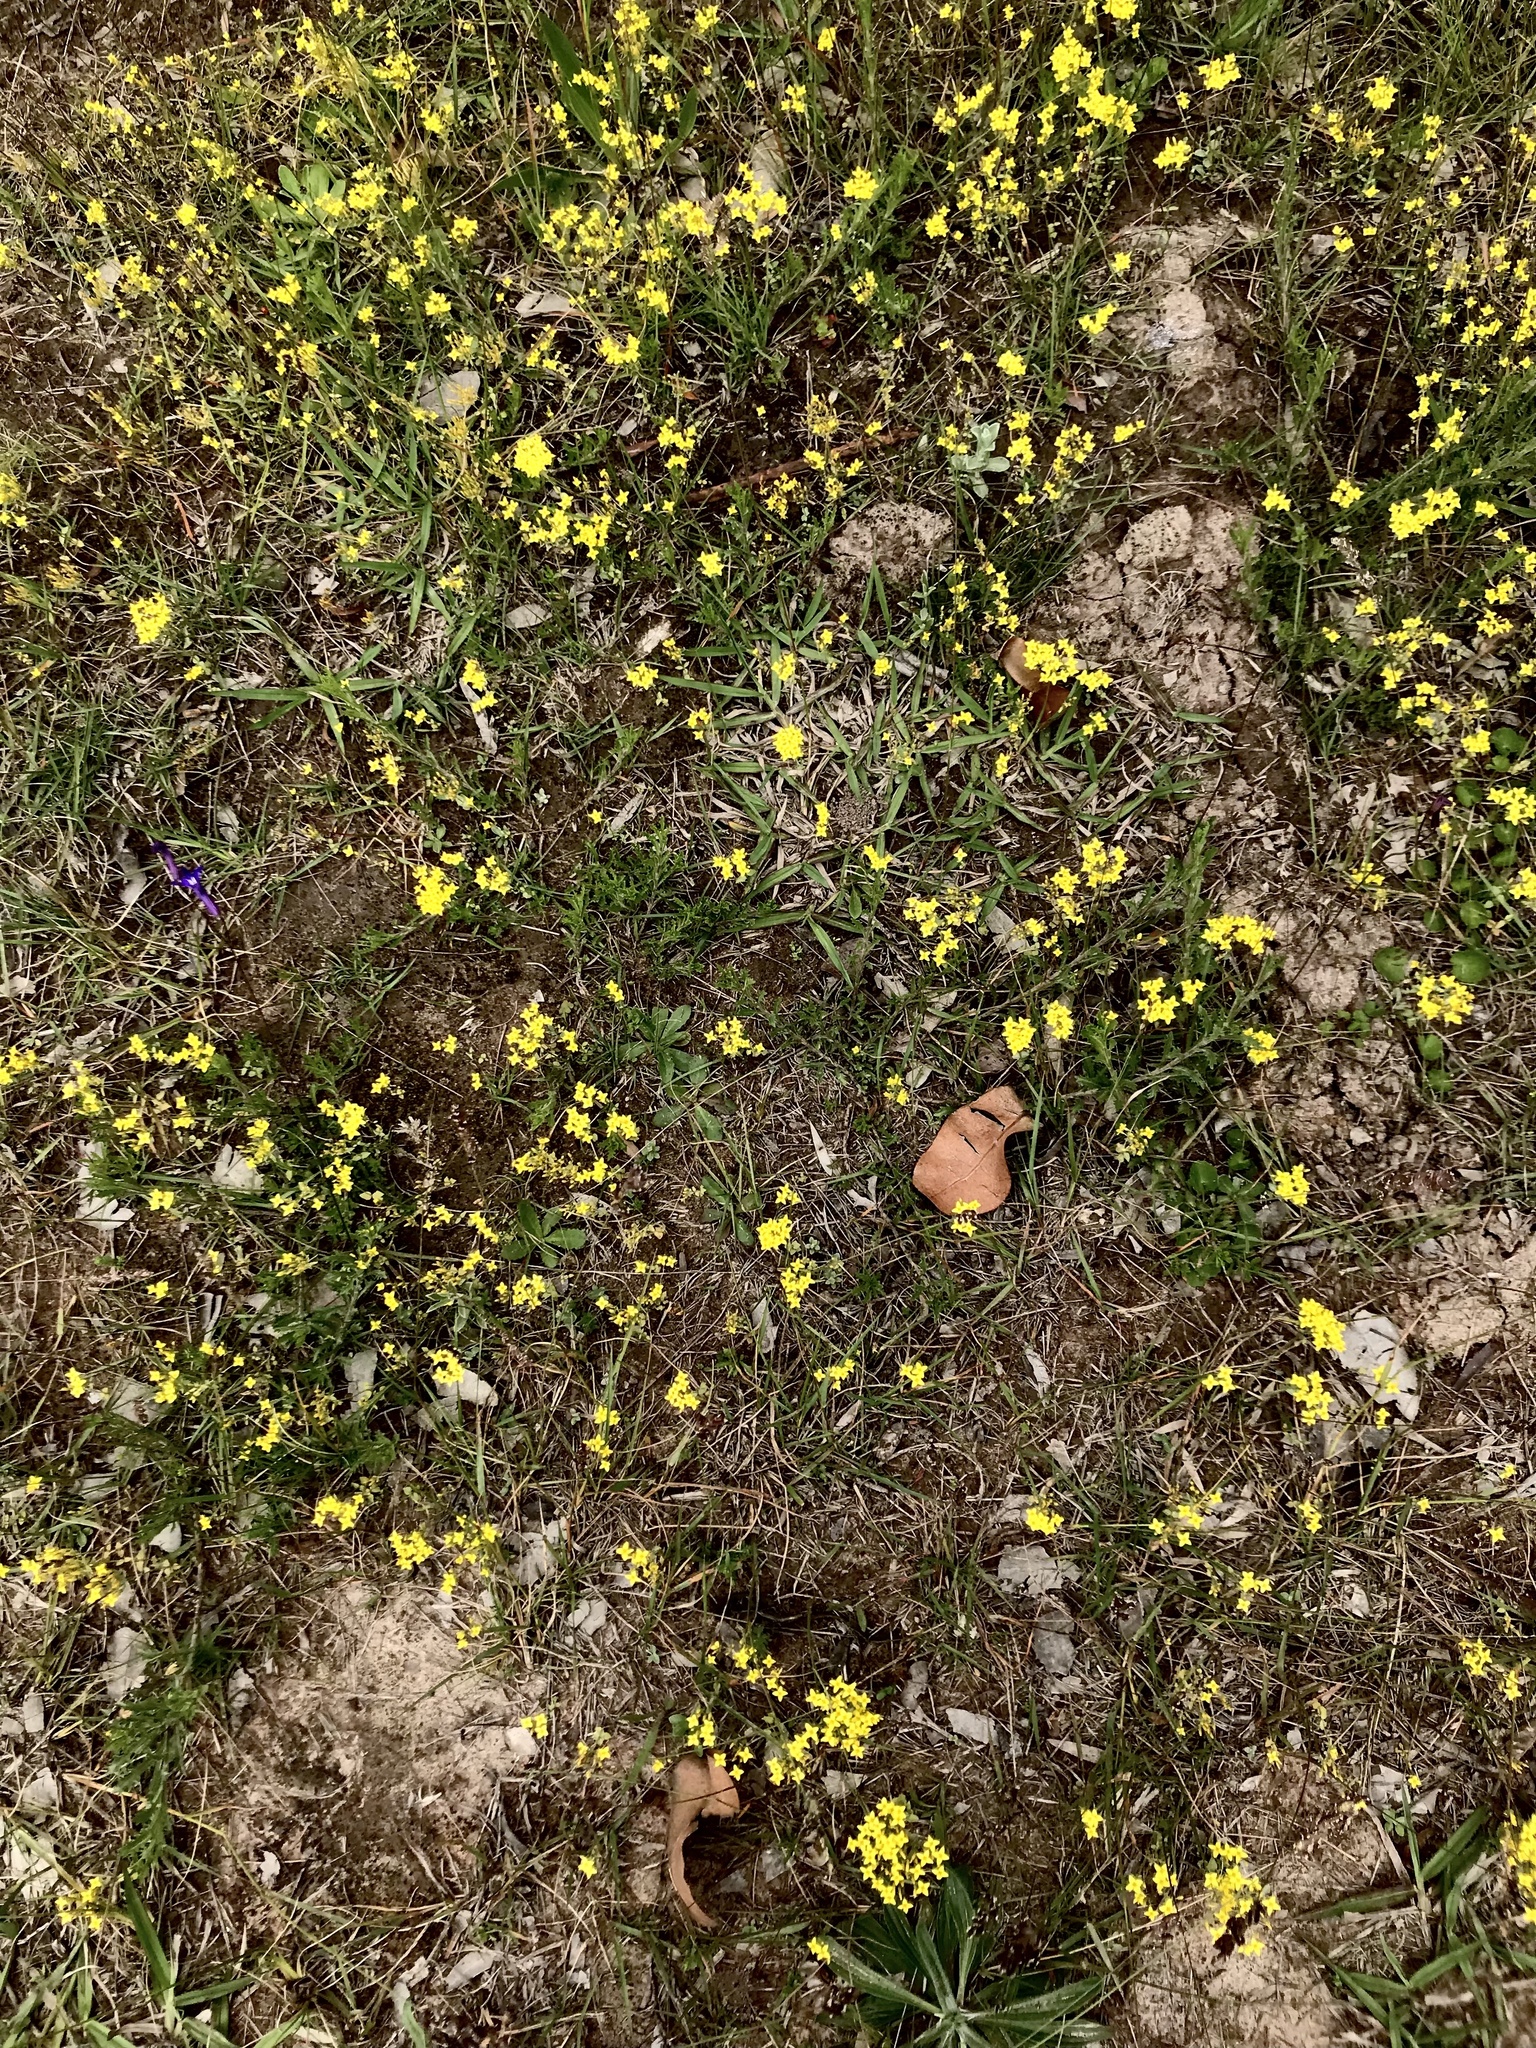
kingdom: Plantae
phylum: Tracheophyta
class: Magnoliopsida
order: Gentianales
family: Gentianaceae
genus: Sebaea
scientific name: Sebaea aurea
